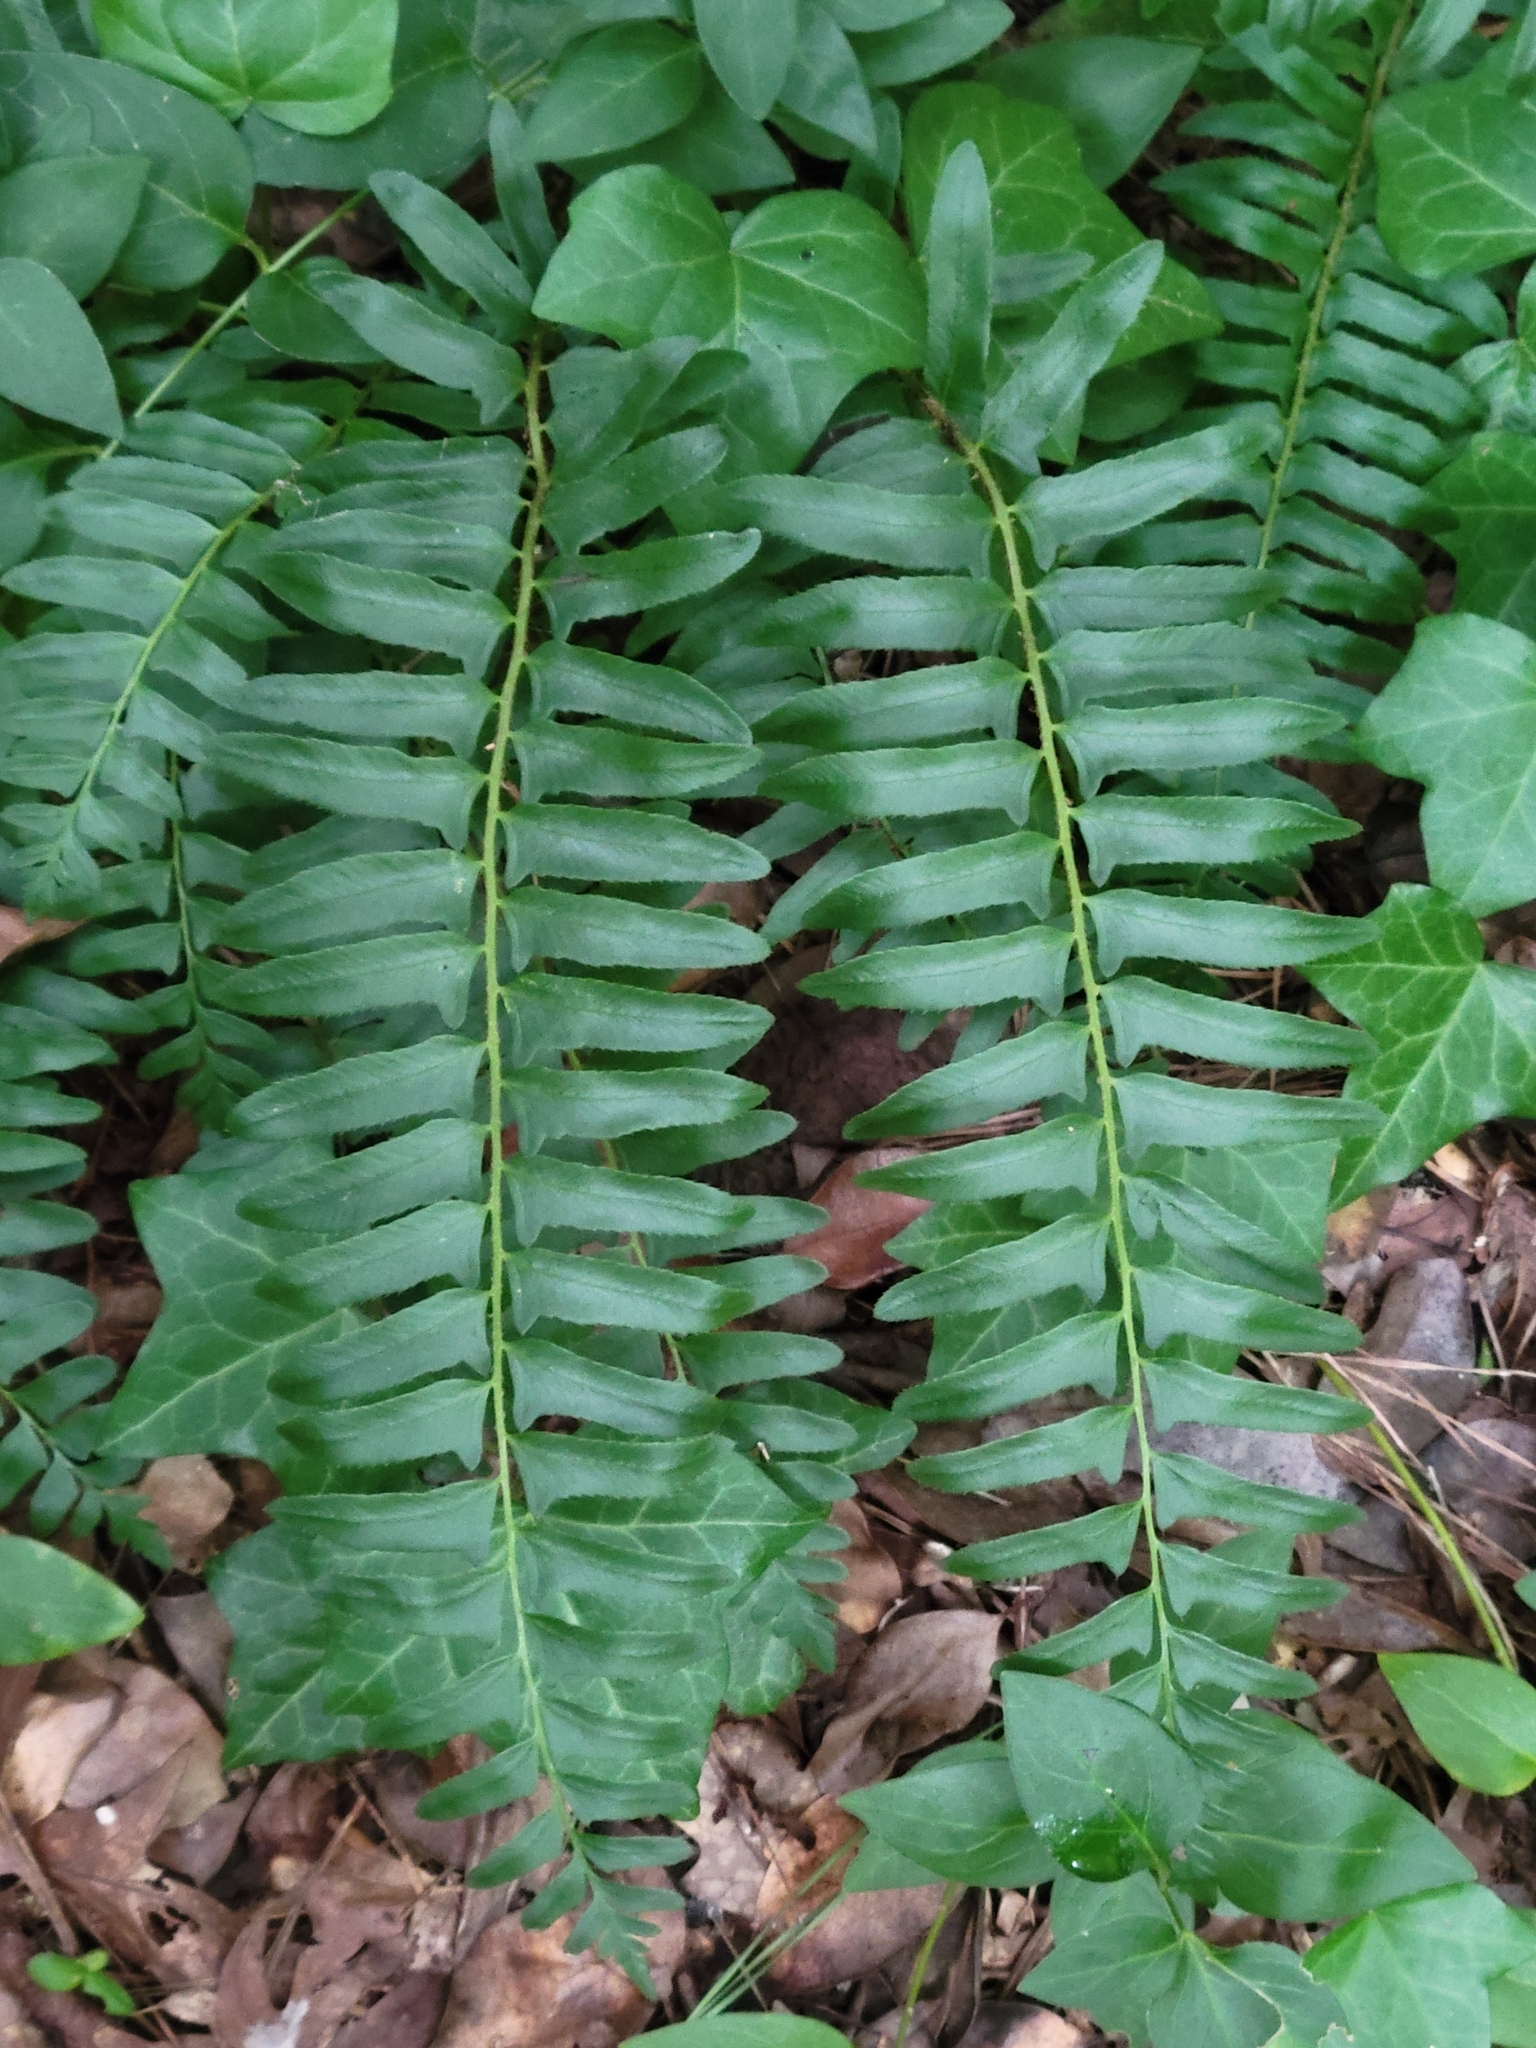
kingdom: Plantae
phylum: Tracheophyta
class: Polypodiopsida
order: Polypodiales
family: Dryopteridaceae
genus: Polystichum
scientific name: Polystichum acrostichoides
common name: Christmas fern
